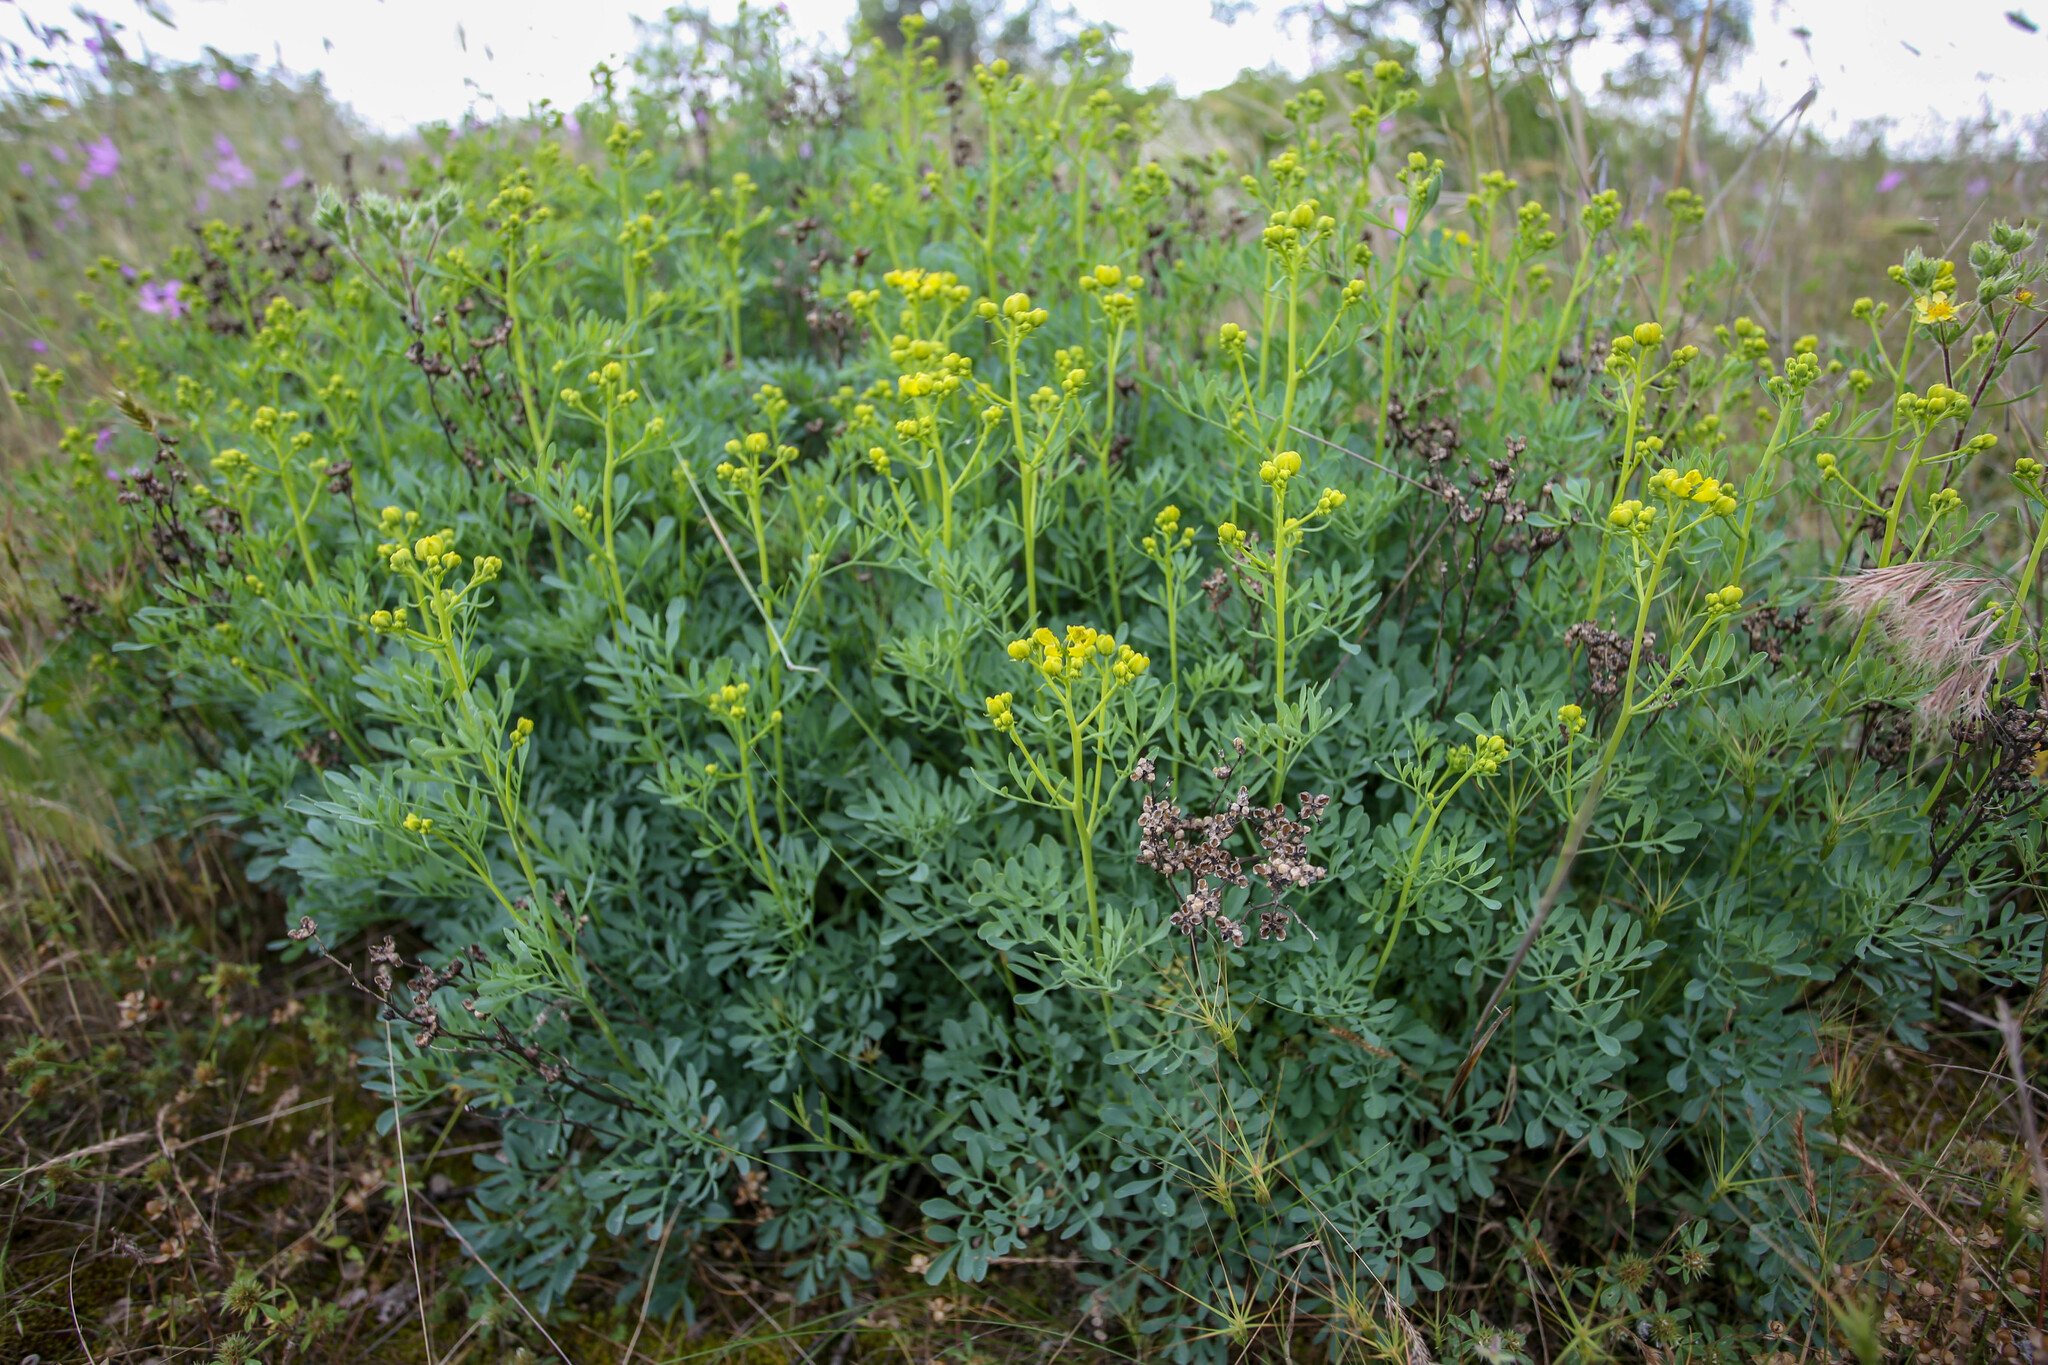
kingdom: Plantae
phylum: Tracheophyta
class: Magnoliopsida
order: Sapindales
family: Rutaceae
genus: Ruta
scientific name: Ruta
